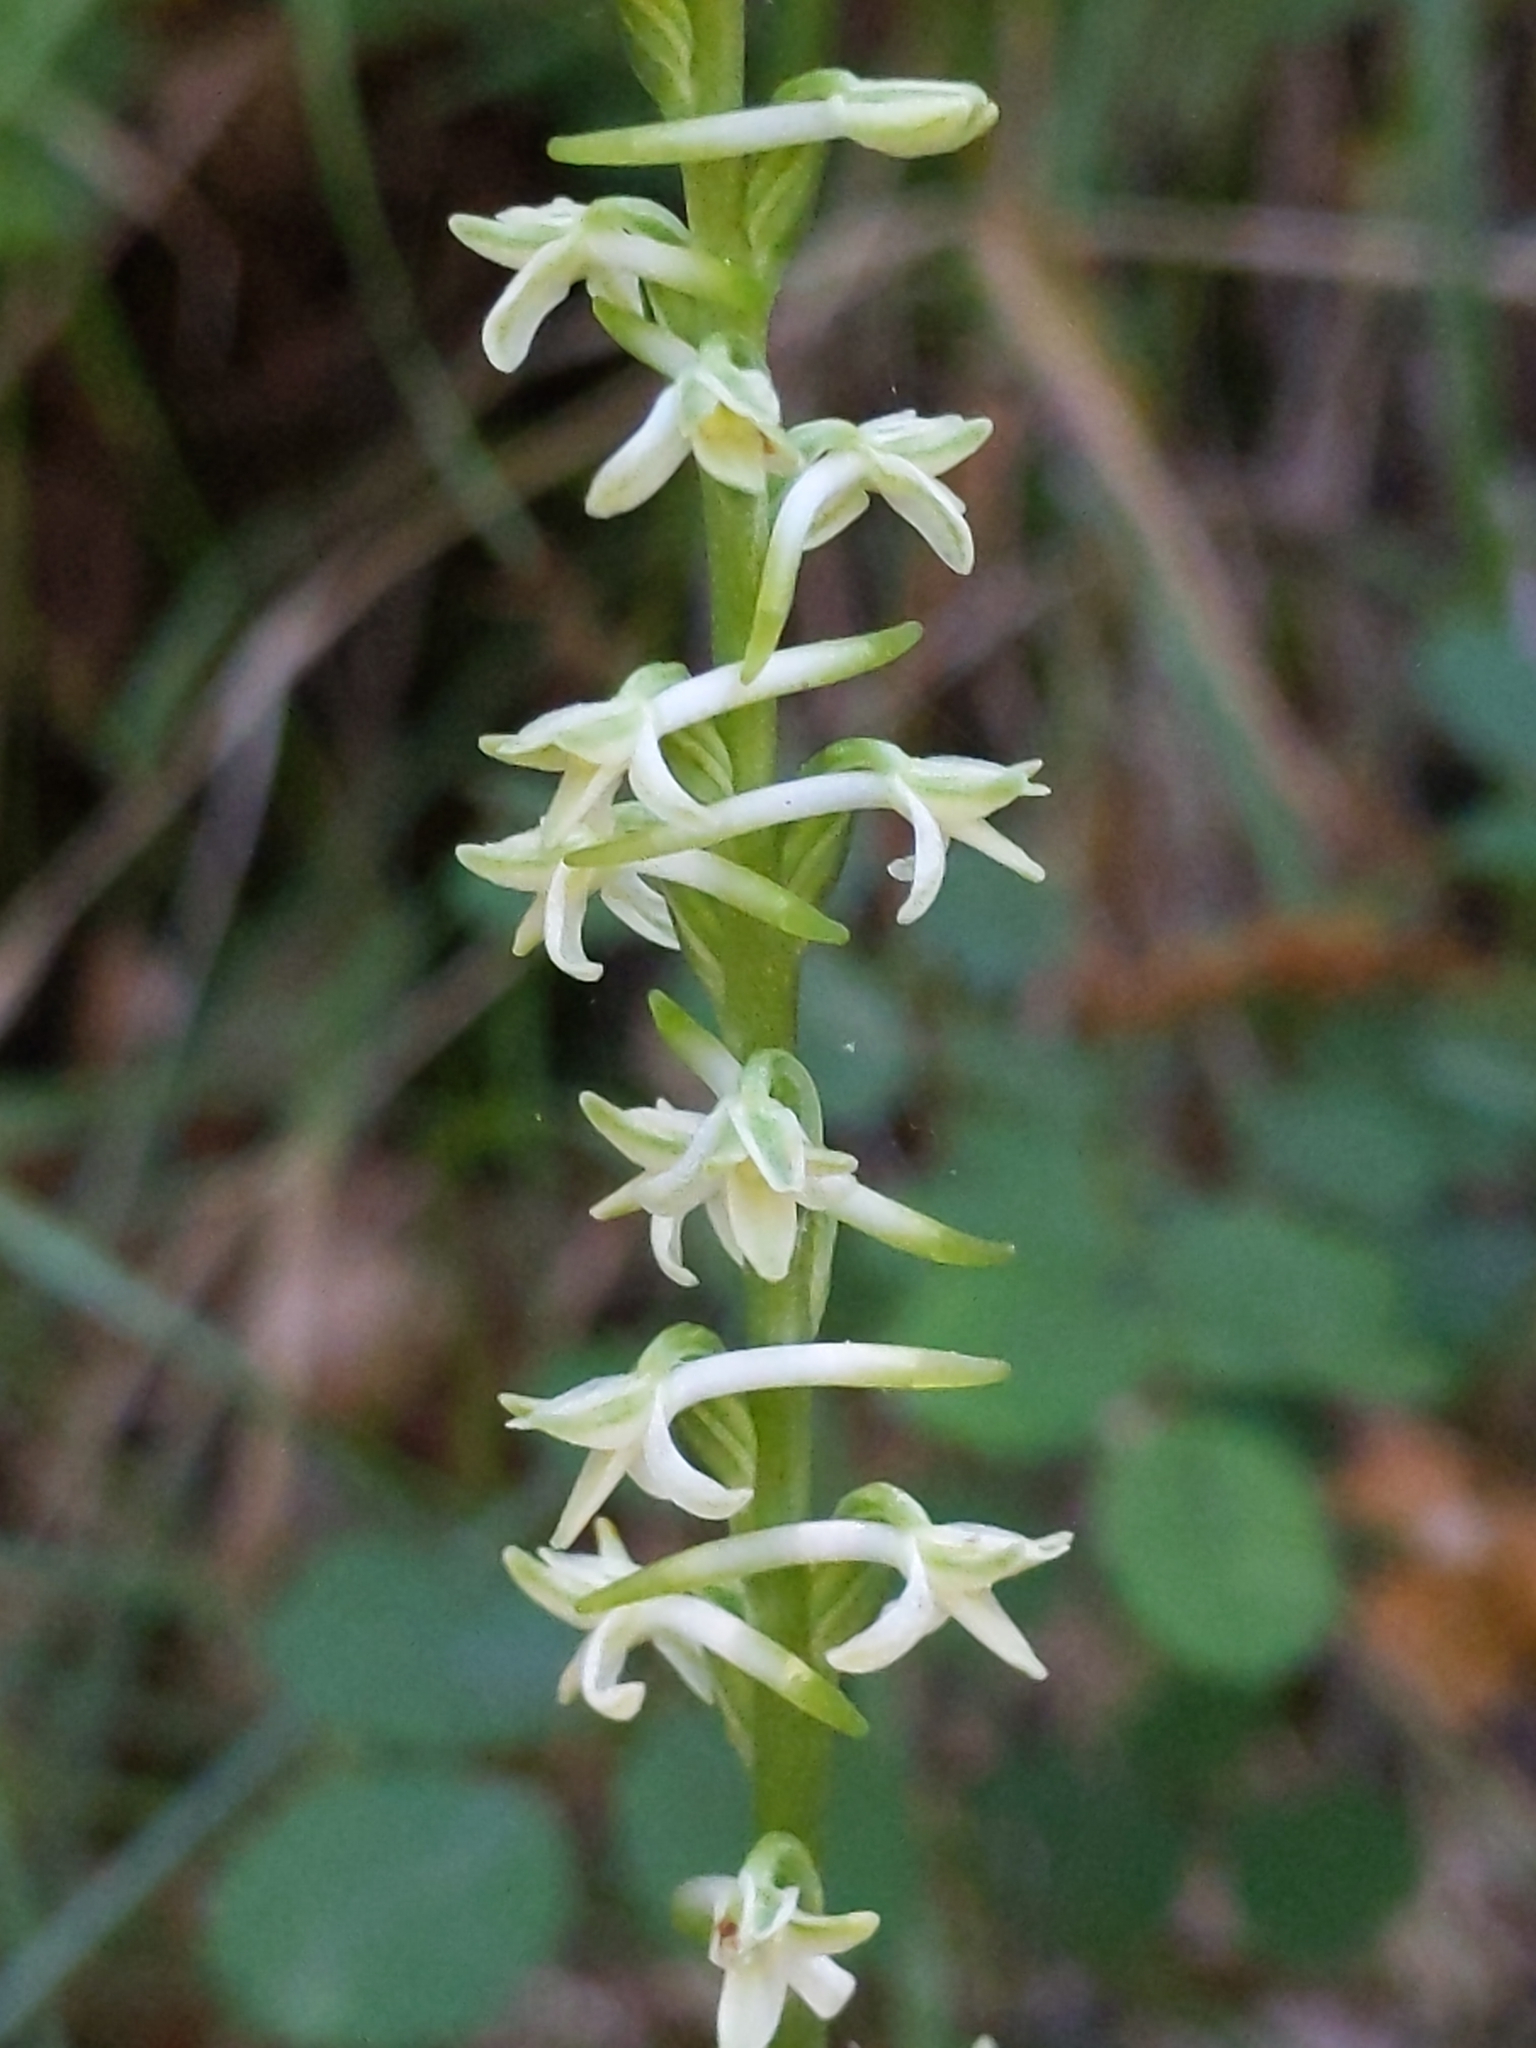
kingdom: Plantae
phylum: Tracheophyta
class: Liliopsida
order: Asparagales
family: Orchidaceae
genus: Platanthera
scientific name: Platanthera transversa
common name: Royal rein orchid
